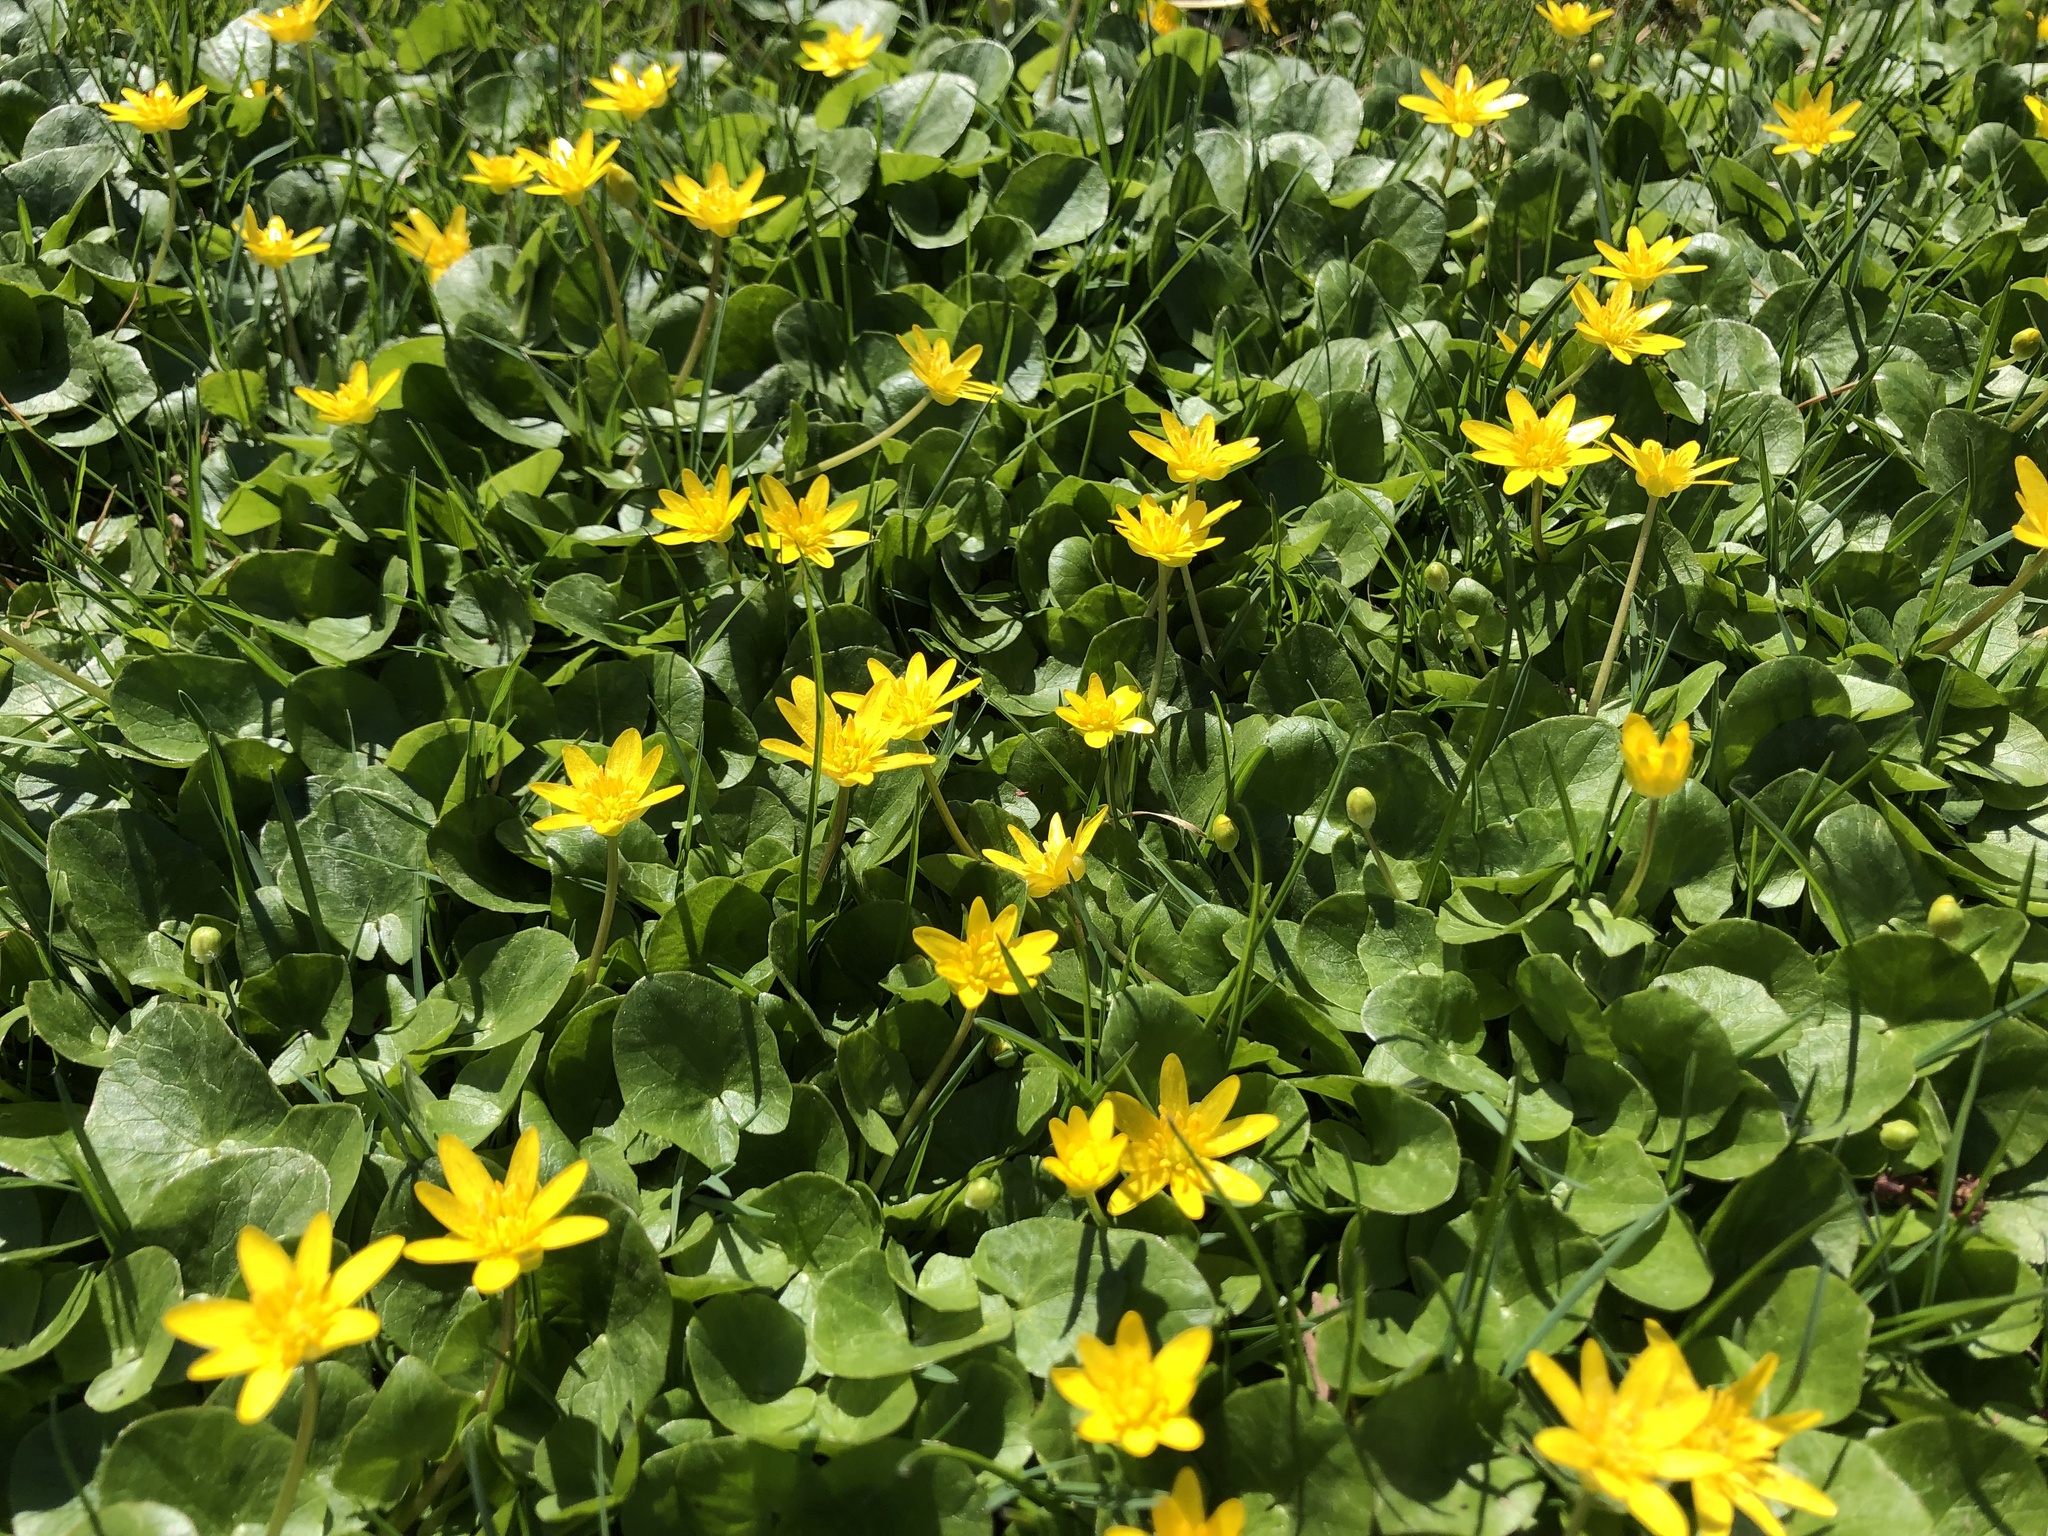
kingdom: Plantae
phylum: Tracheophyta
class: Magnoliopsida
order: Ranunculales
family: Ranunculaceae
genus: Ficaria
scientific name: Ficaria verna
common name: Lesser celandine
